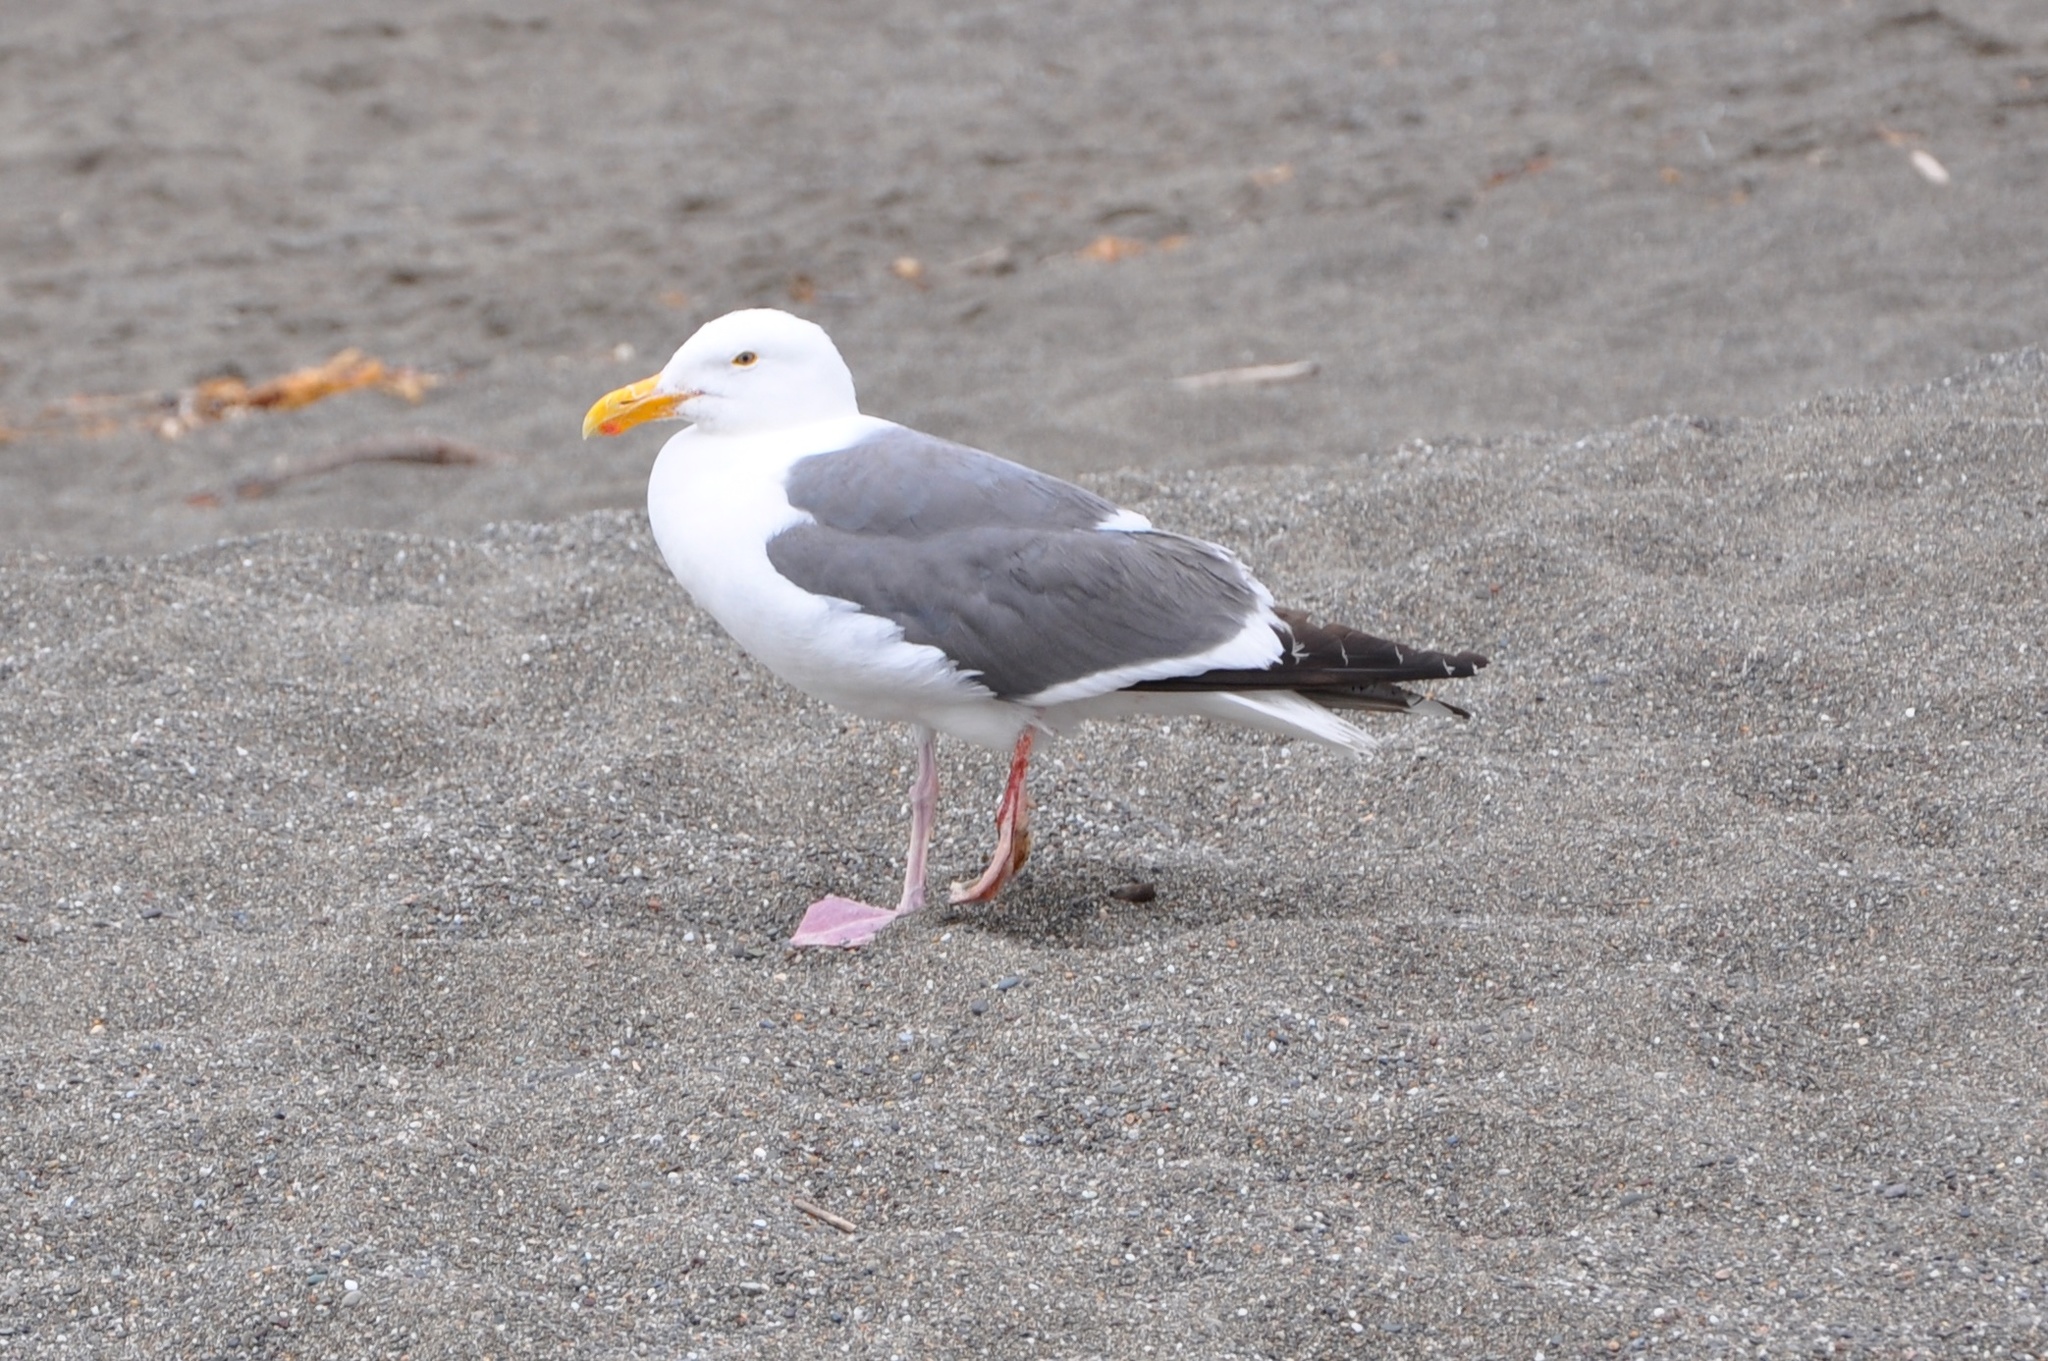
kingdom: Animalia
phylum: Chordata
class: Aves
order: Charadriiformes
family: Laridae
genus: Larus
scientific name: Larus occidentalis
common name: Western gull
